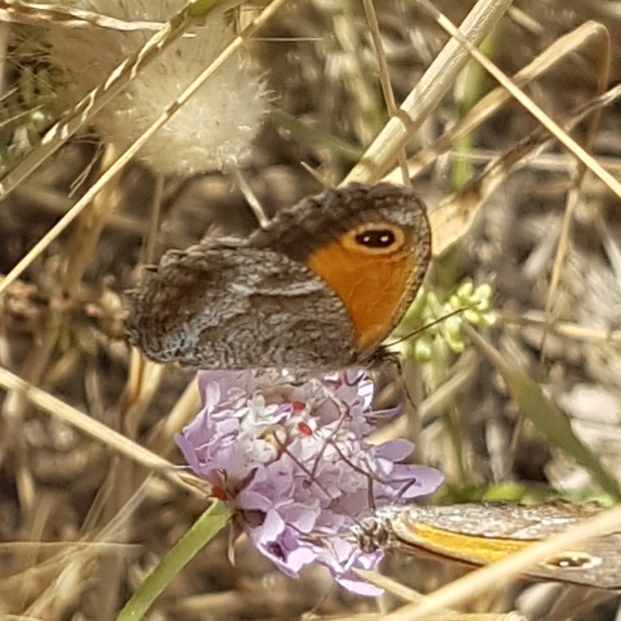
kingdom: Animalia
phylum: Arthropoda
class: Insecta
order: Lepidoptera
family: Nymphalidae
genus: Pyronia
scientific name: Pyronia cecilia
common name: Southern gatekeeper
